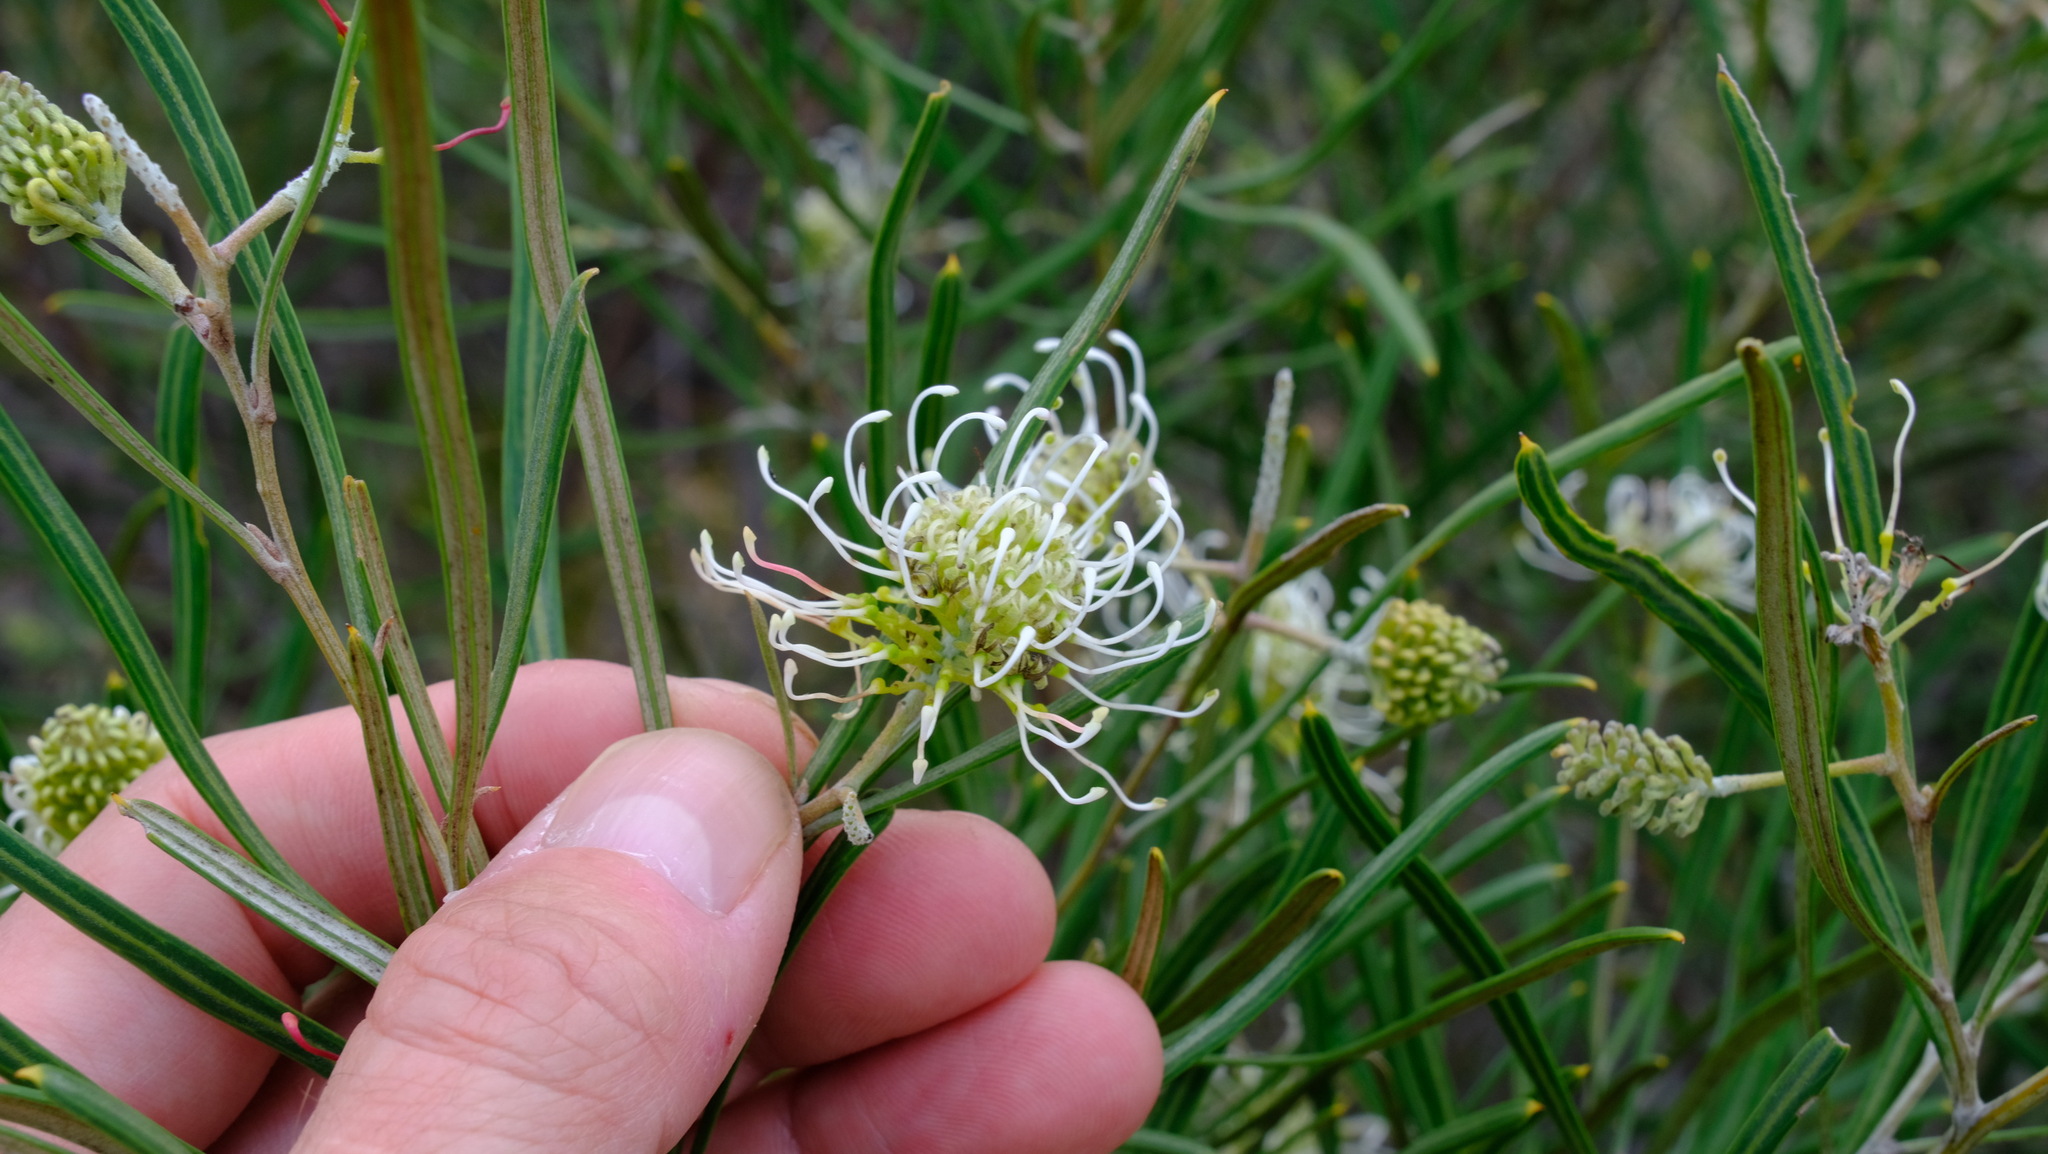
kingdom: Plantae
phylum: Tracheophyta
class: Magnoliopsida
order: Proteales
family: Proteaceae
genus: Grevillea
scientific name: Grevillea commutata
